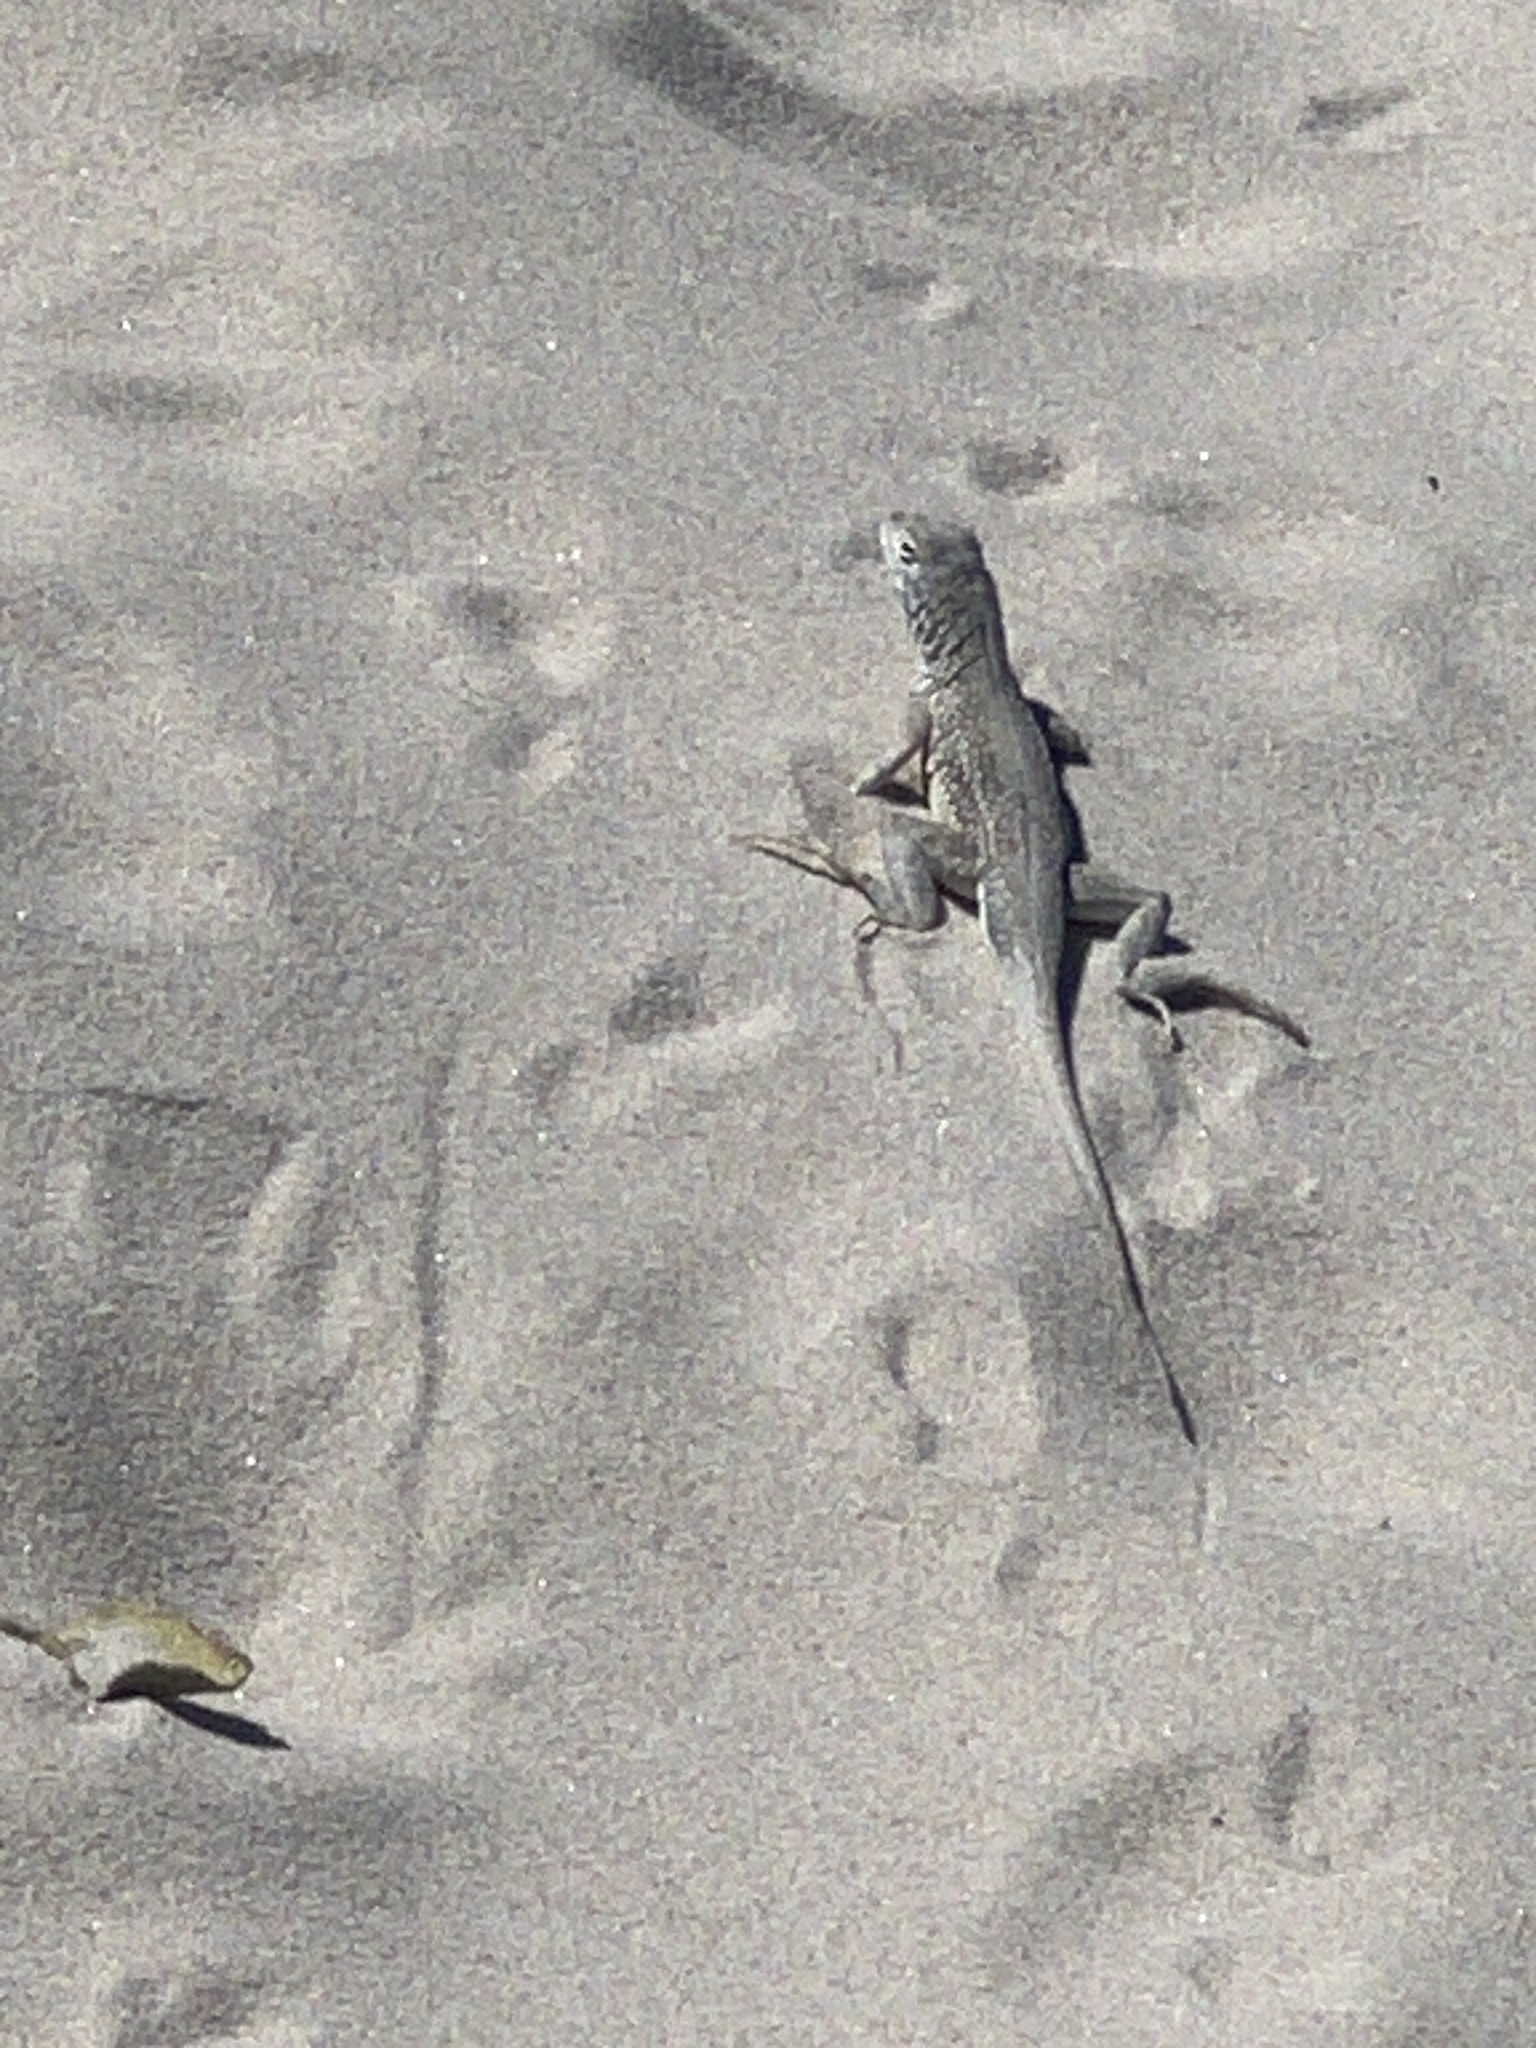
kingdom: Animalia
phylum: Chordata
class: Squamata
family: Phrynosomatidae
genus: Holbrookia
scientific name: Holbrookia propinqua
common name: Keeled earless lizard
